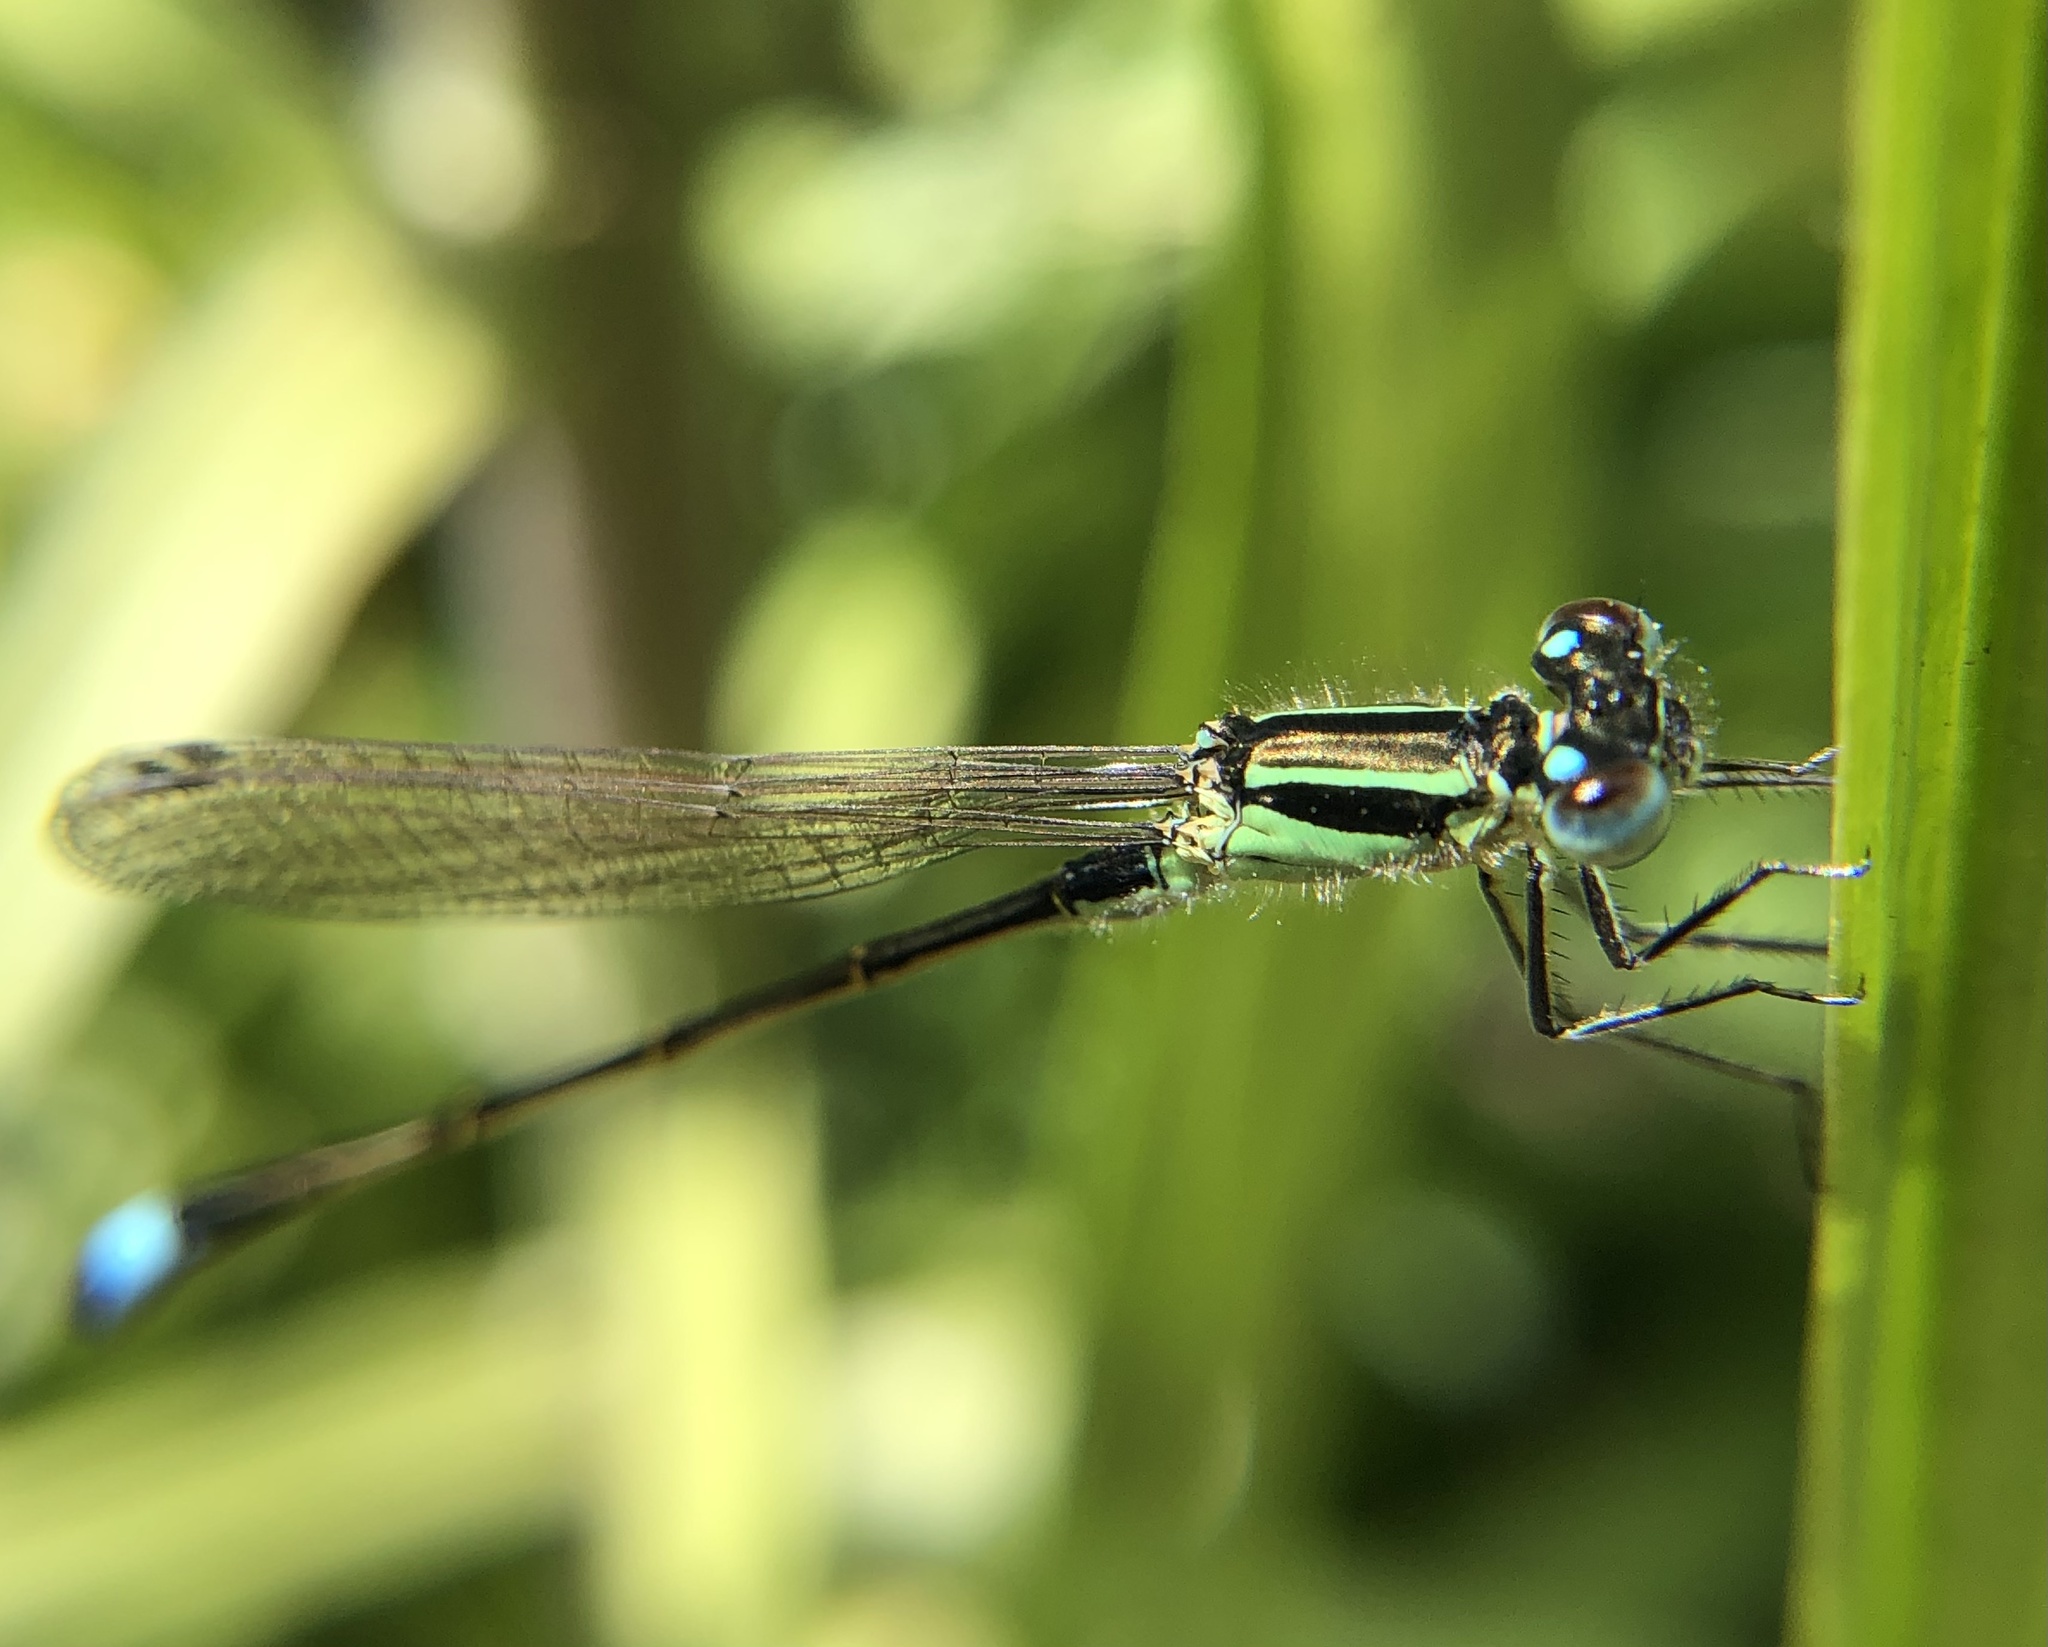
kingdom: Animalia
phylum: Arthropoda
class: Insecta
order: Odonata
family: Coenagrionidae
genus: Ischnura
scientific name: Ischnura elegans
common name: Blue-tailed damselfly
